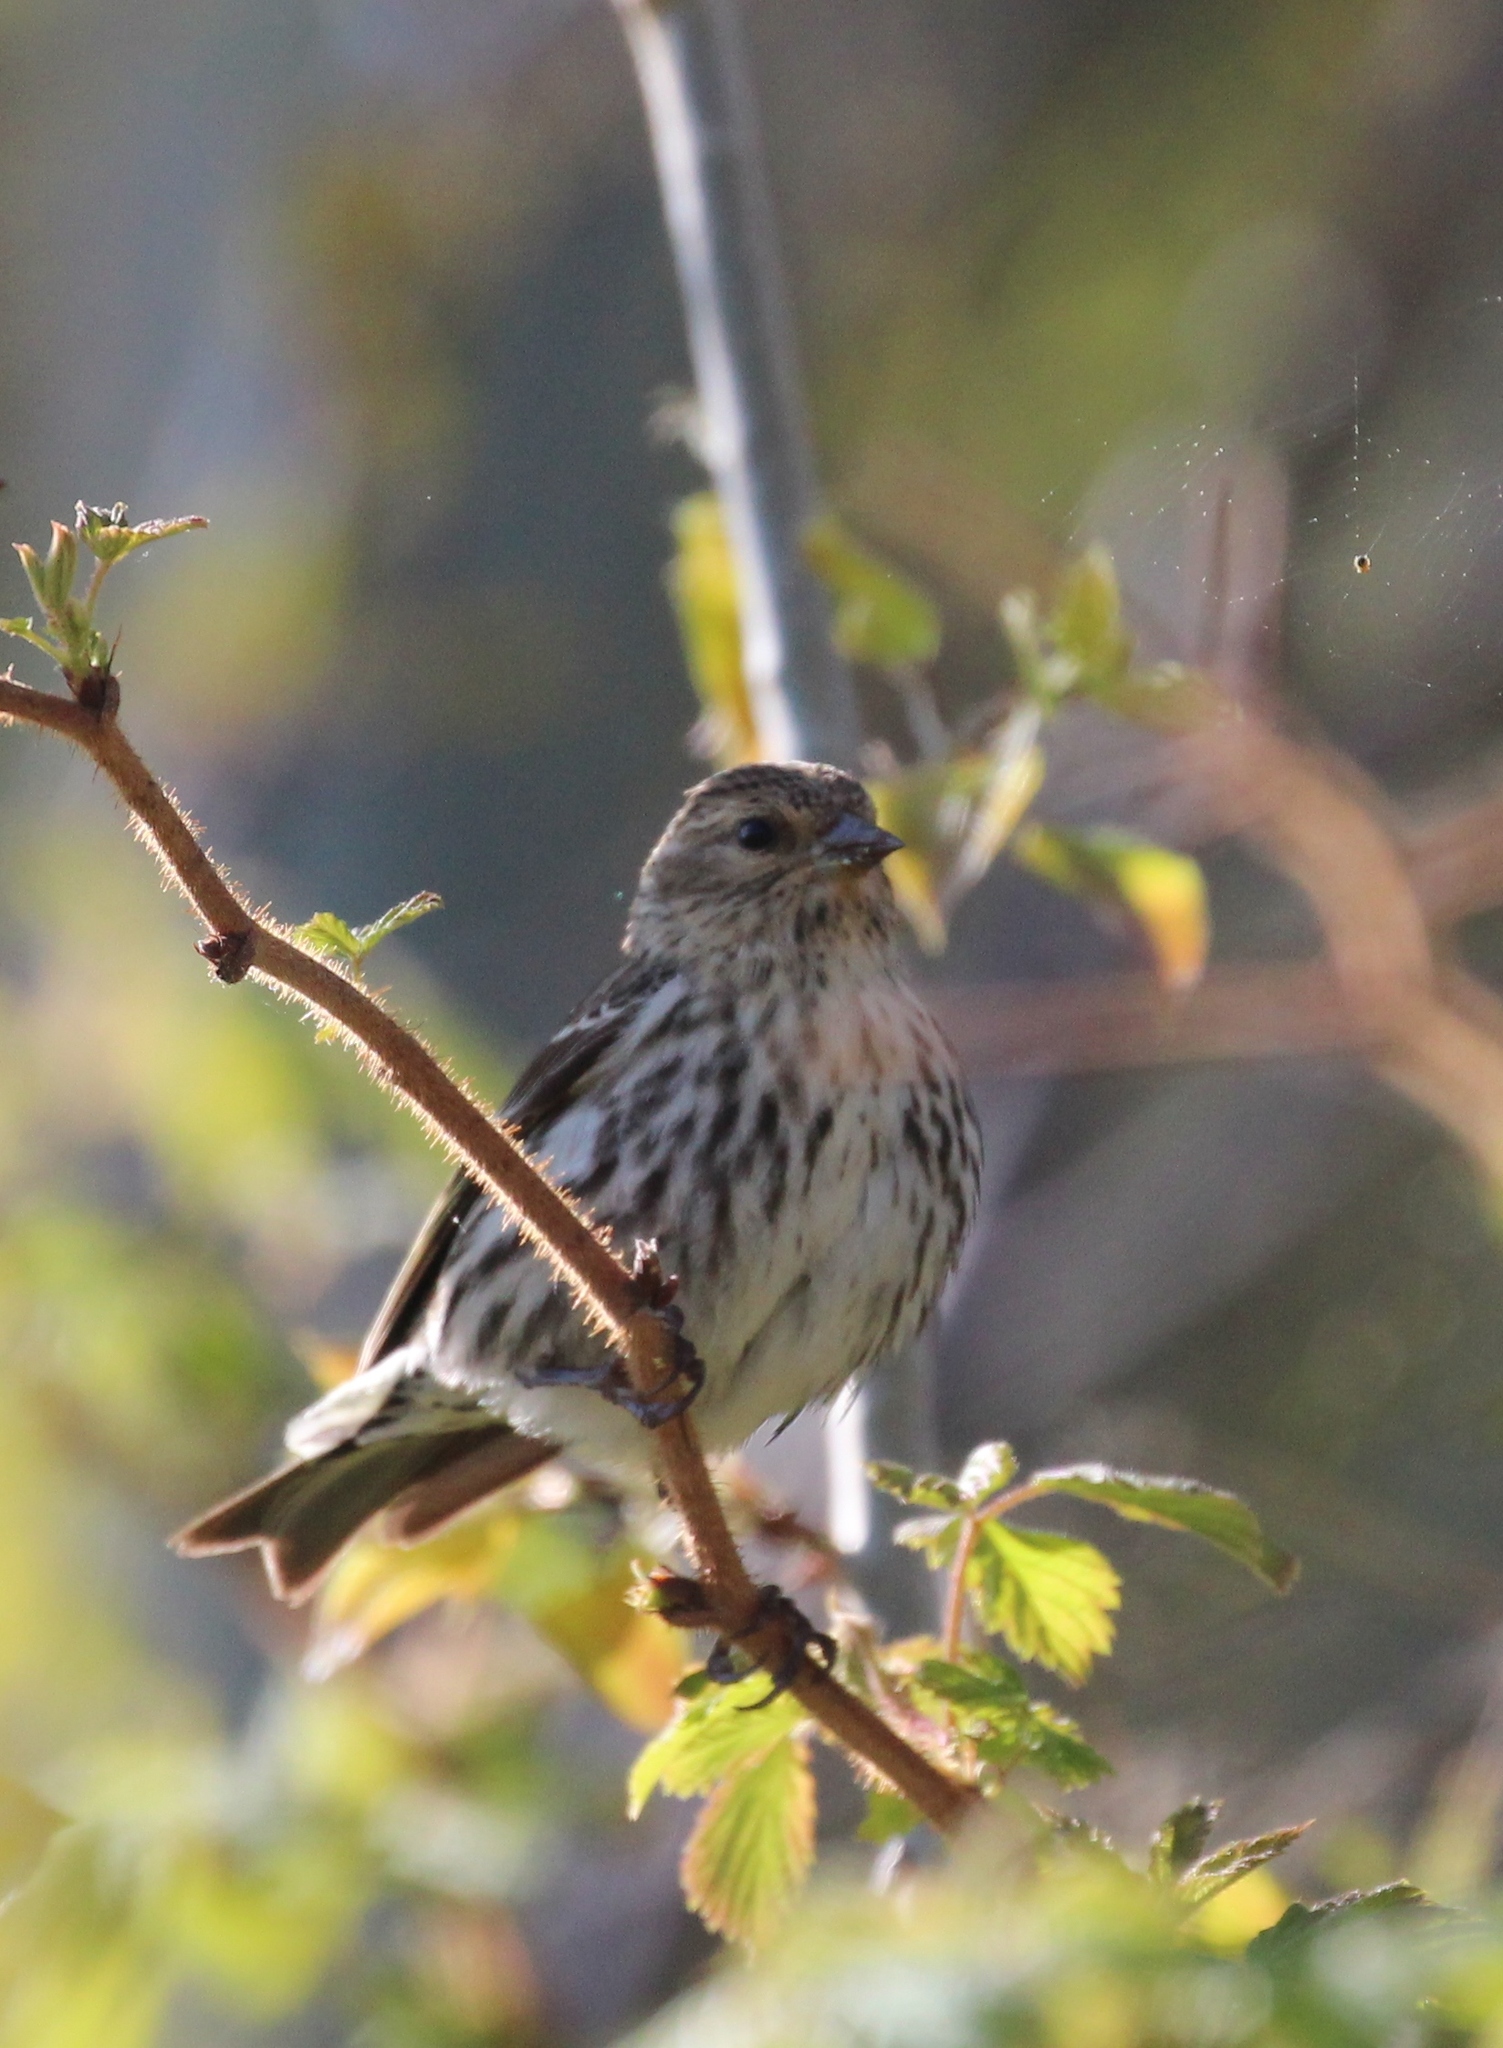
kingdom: Animalia
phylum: Chordata
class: Aves
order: Passeriformes
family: Fringillidae
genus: Spinus
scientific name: Spinus pinus
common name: Pine siskin
